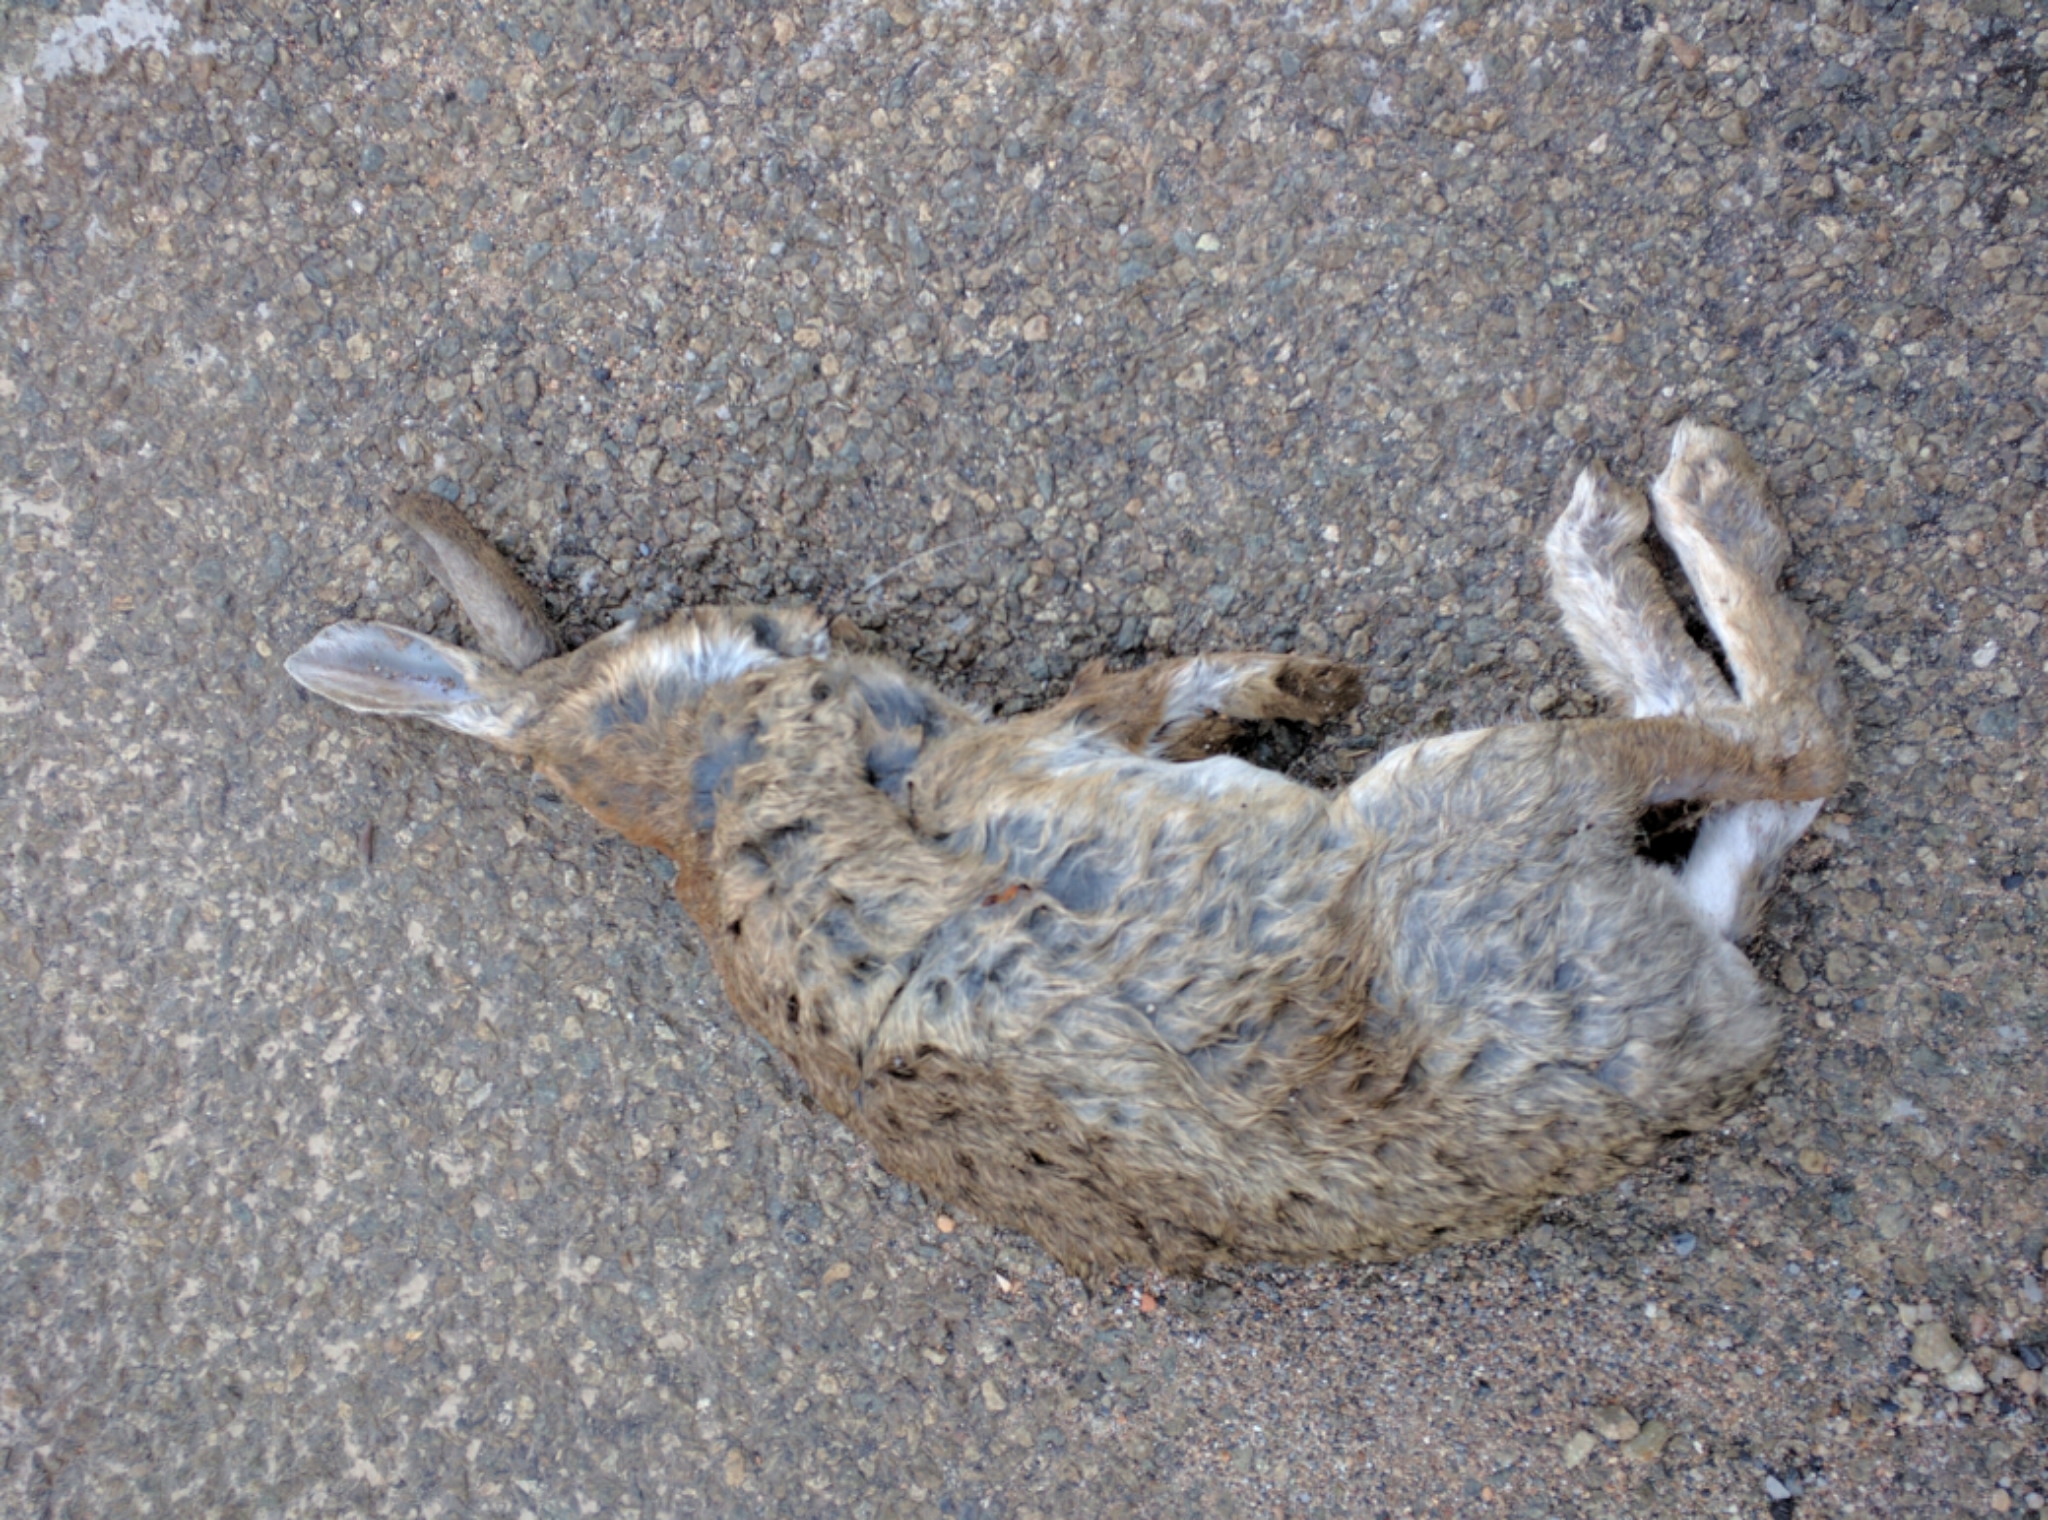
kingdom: Animalia
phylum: Chordata
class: Mammalia
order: Lagomorpha
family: Leporidae
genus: Oryctolagus
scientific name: Oryctolagus cuniculus
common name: European rabbit
